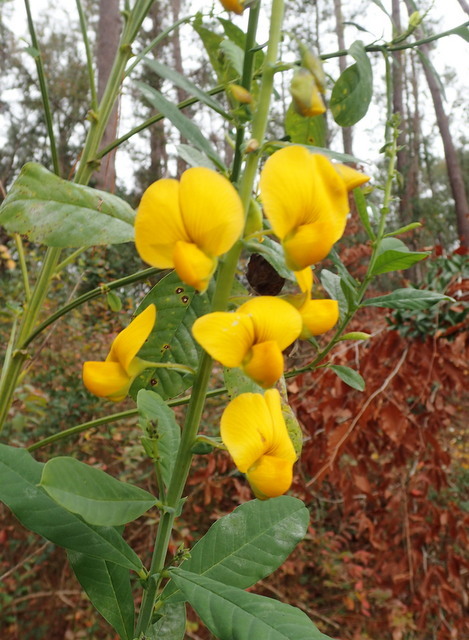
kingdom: Plantae
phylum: Tracheophyta
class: Magnoliopsida
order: Fabales
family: Fabaceae
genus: Crotalaria
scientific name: Crotalaria spectabilis
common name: Showy rattlebox
